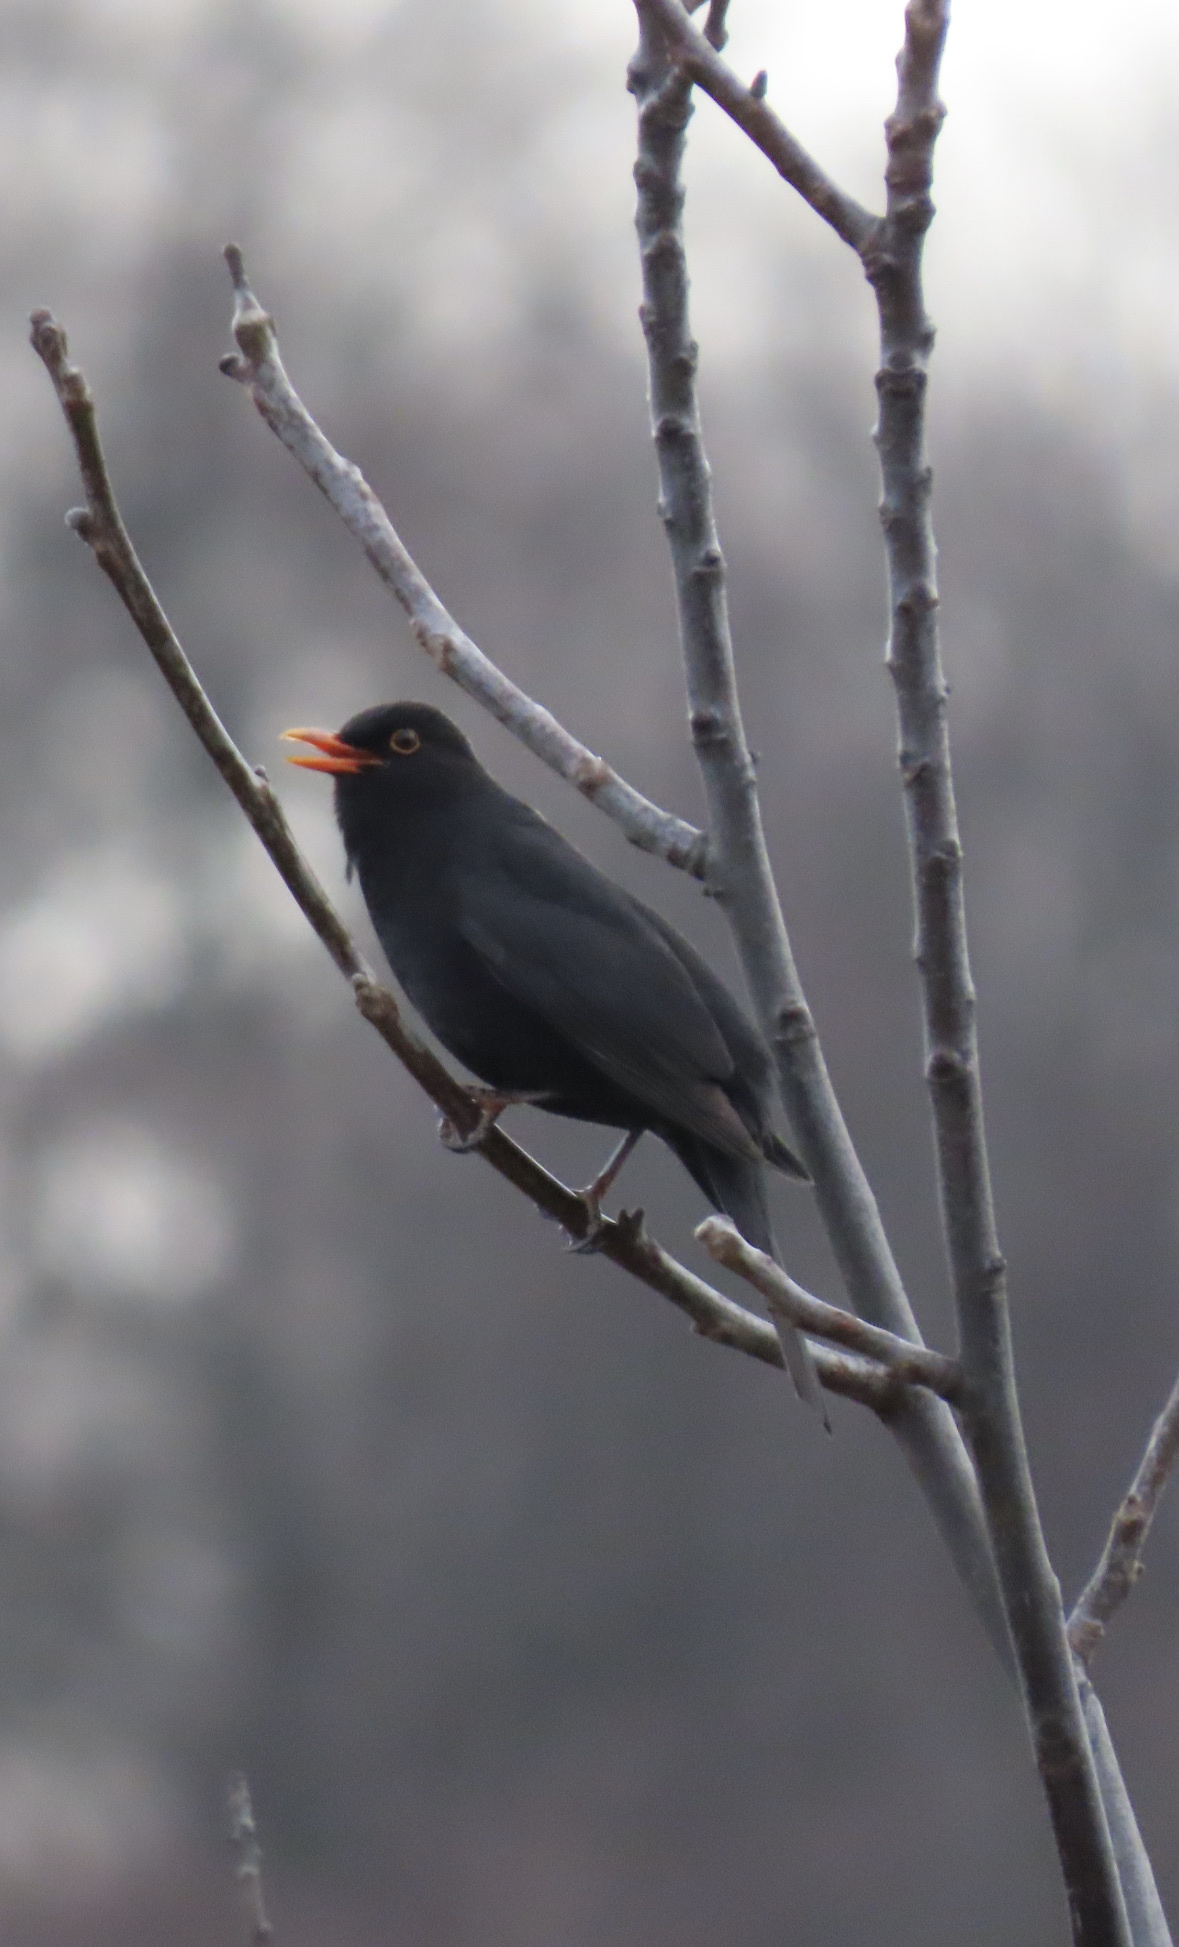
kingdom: Animalia
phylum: Chordata
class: Aves
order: Passeriformes
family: Turdidae
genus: Turdus
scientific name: Turdus merula
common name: Common blackbird
